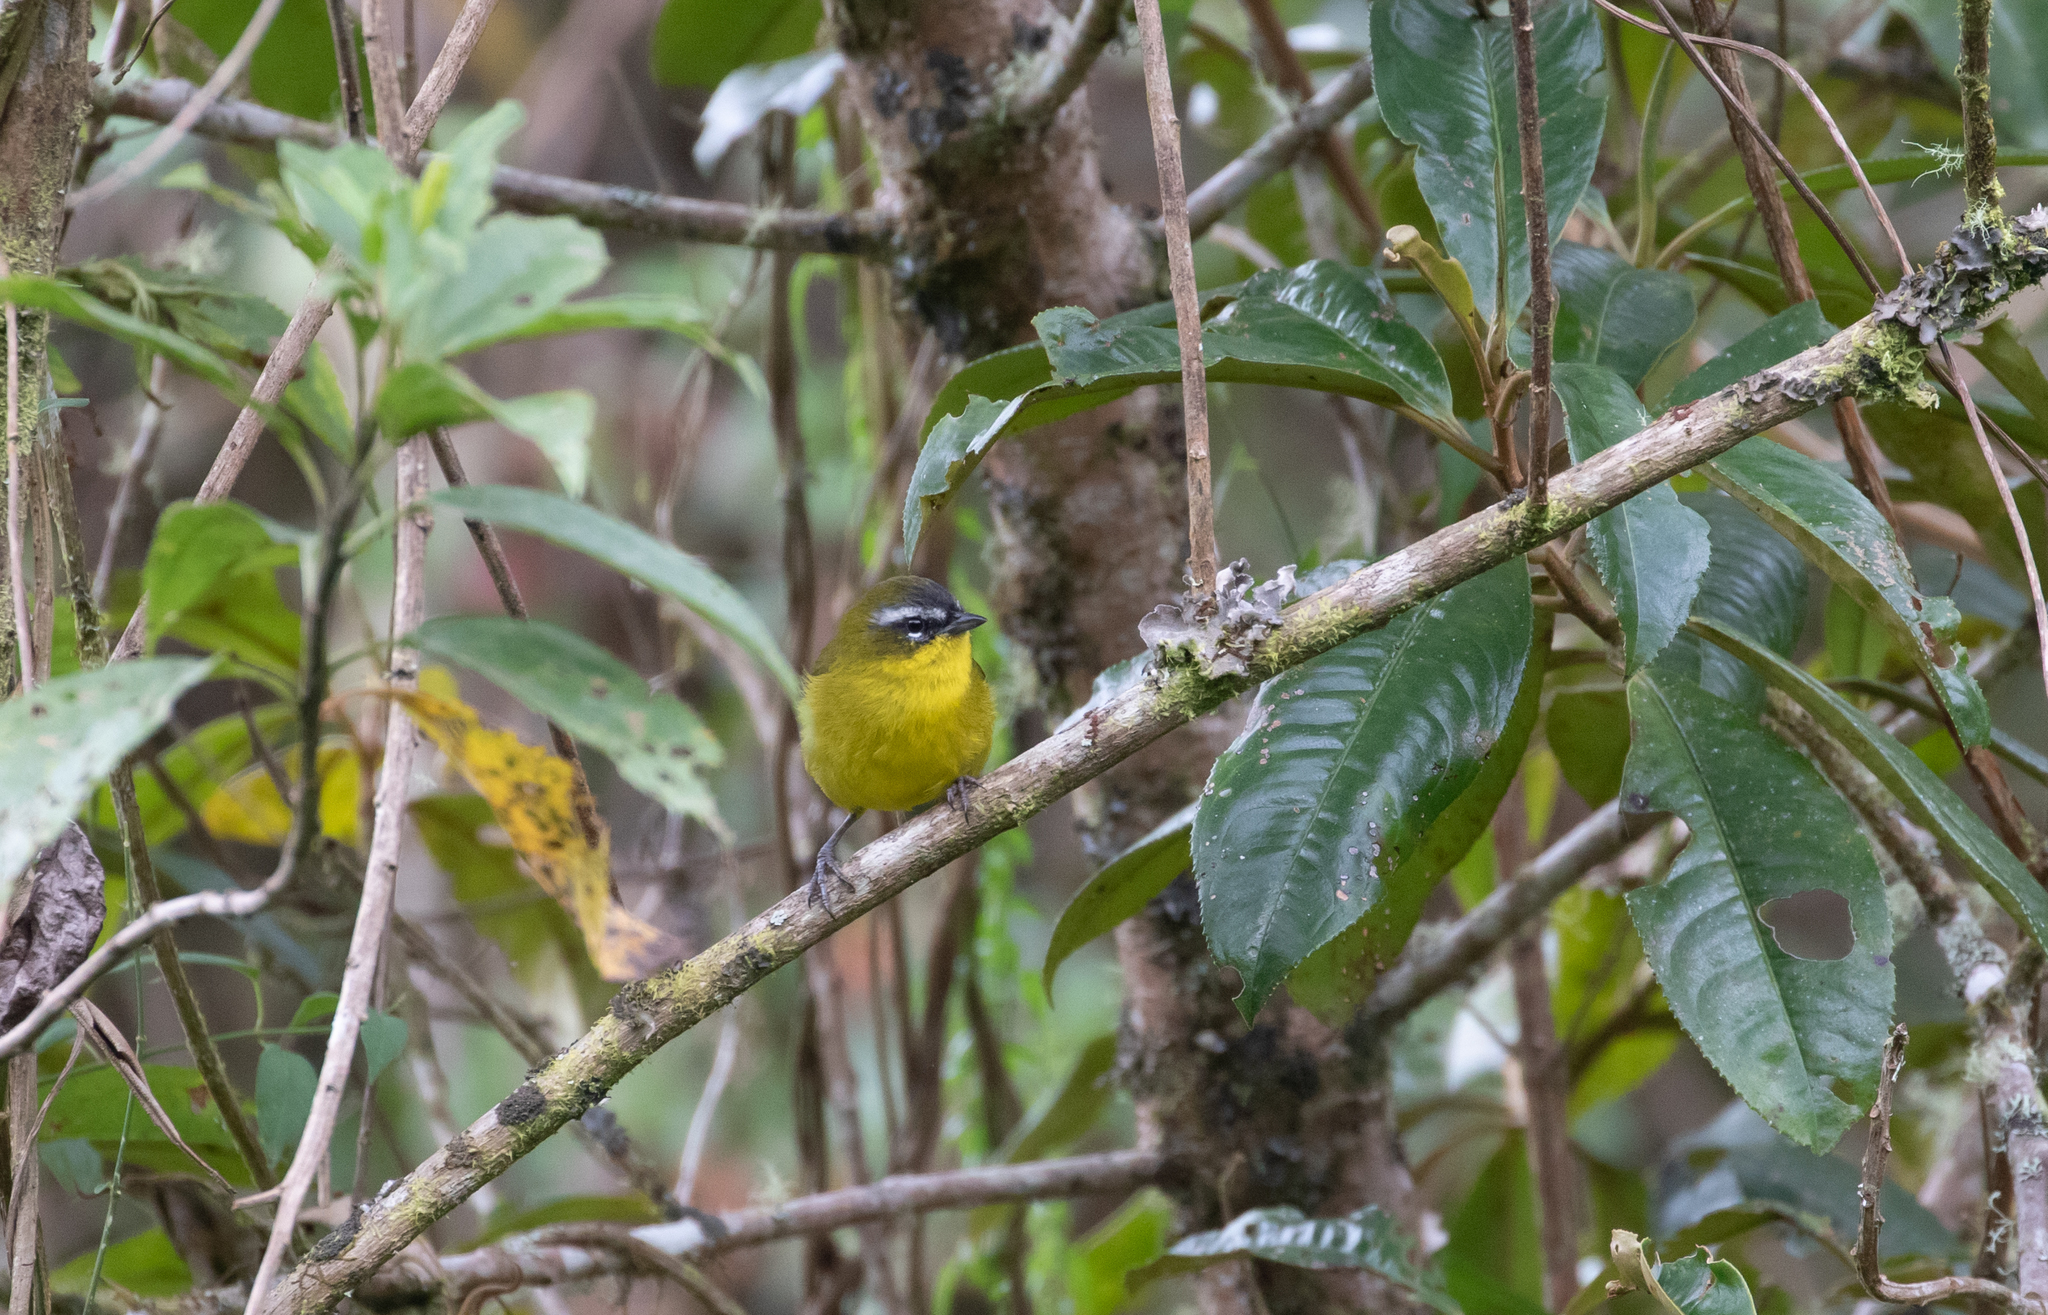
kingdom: Animalia
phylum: Chordata
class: Aves
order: Passeriformes
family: Thraupidae
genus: Thlypopsis
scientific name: Thlypopsis superciliaris
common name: Superciliaried hemispingus
